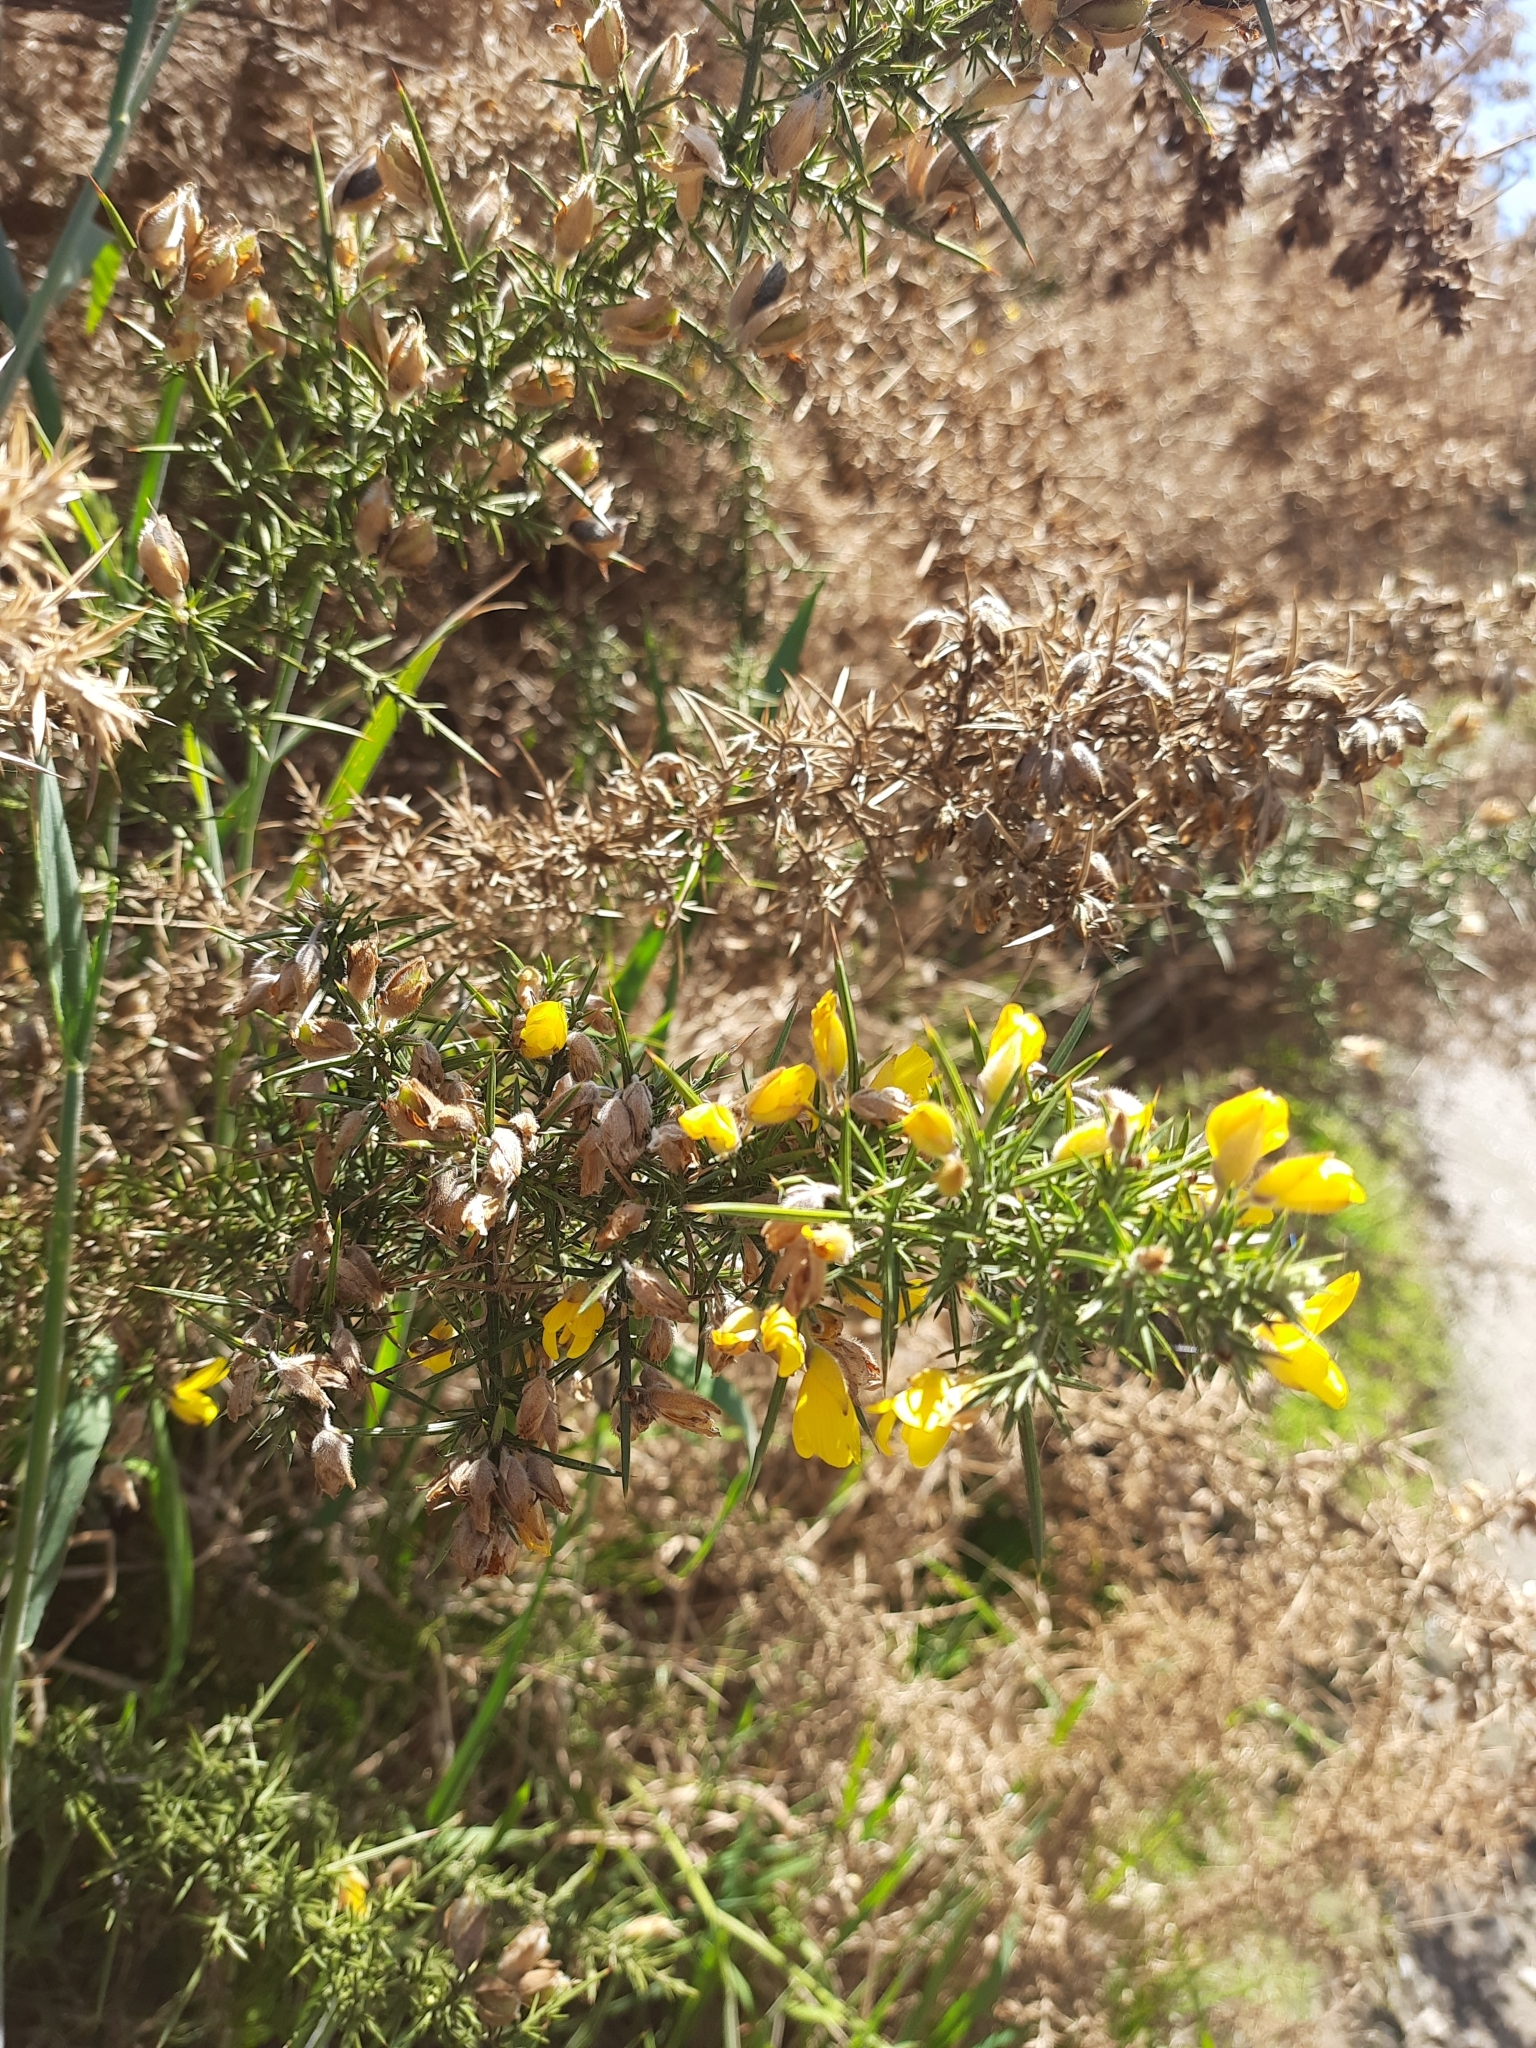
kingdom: Plantae
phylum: Tracheophyta
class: Magnoliopsida
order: Fabales
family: Fabaceae
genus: Ulex
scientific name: Ulex europaeus
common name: Common gorse
